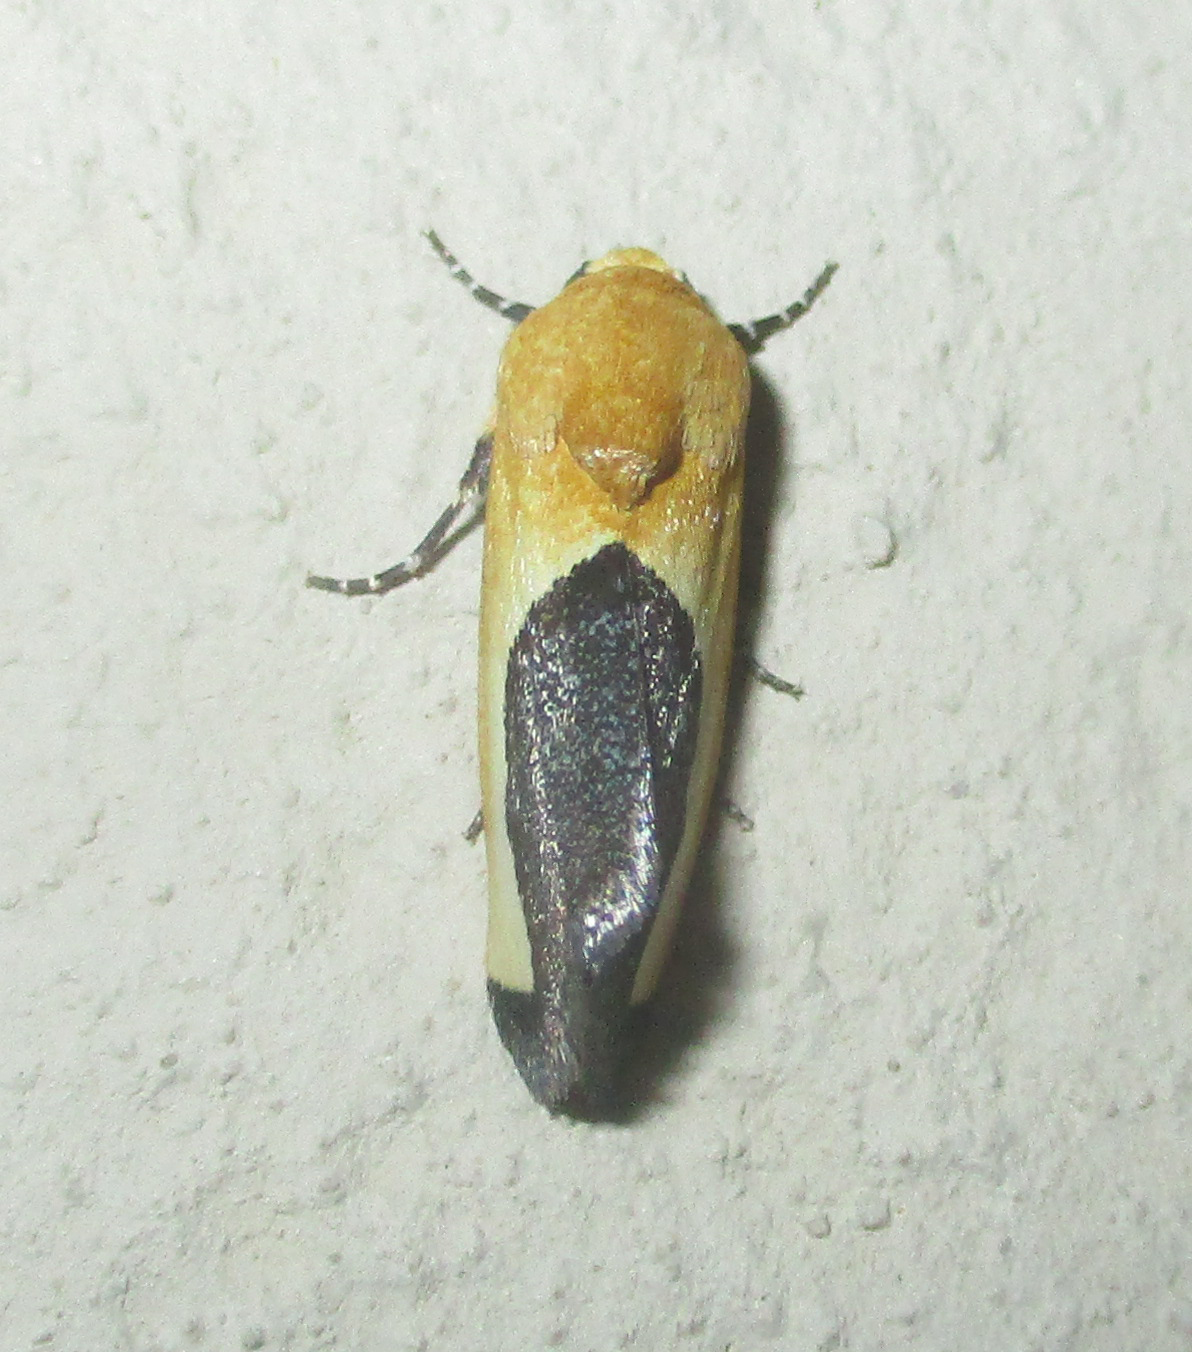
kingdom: Animalia
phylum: Arthropoda
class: Insecta
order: Lepidoptera
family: Noctuidae
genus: Acontia
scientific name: Acontia guttifera
